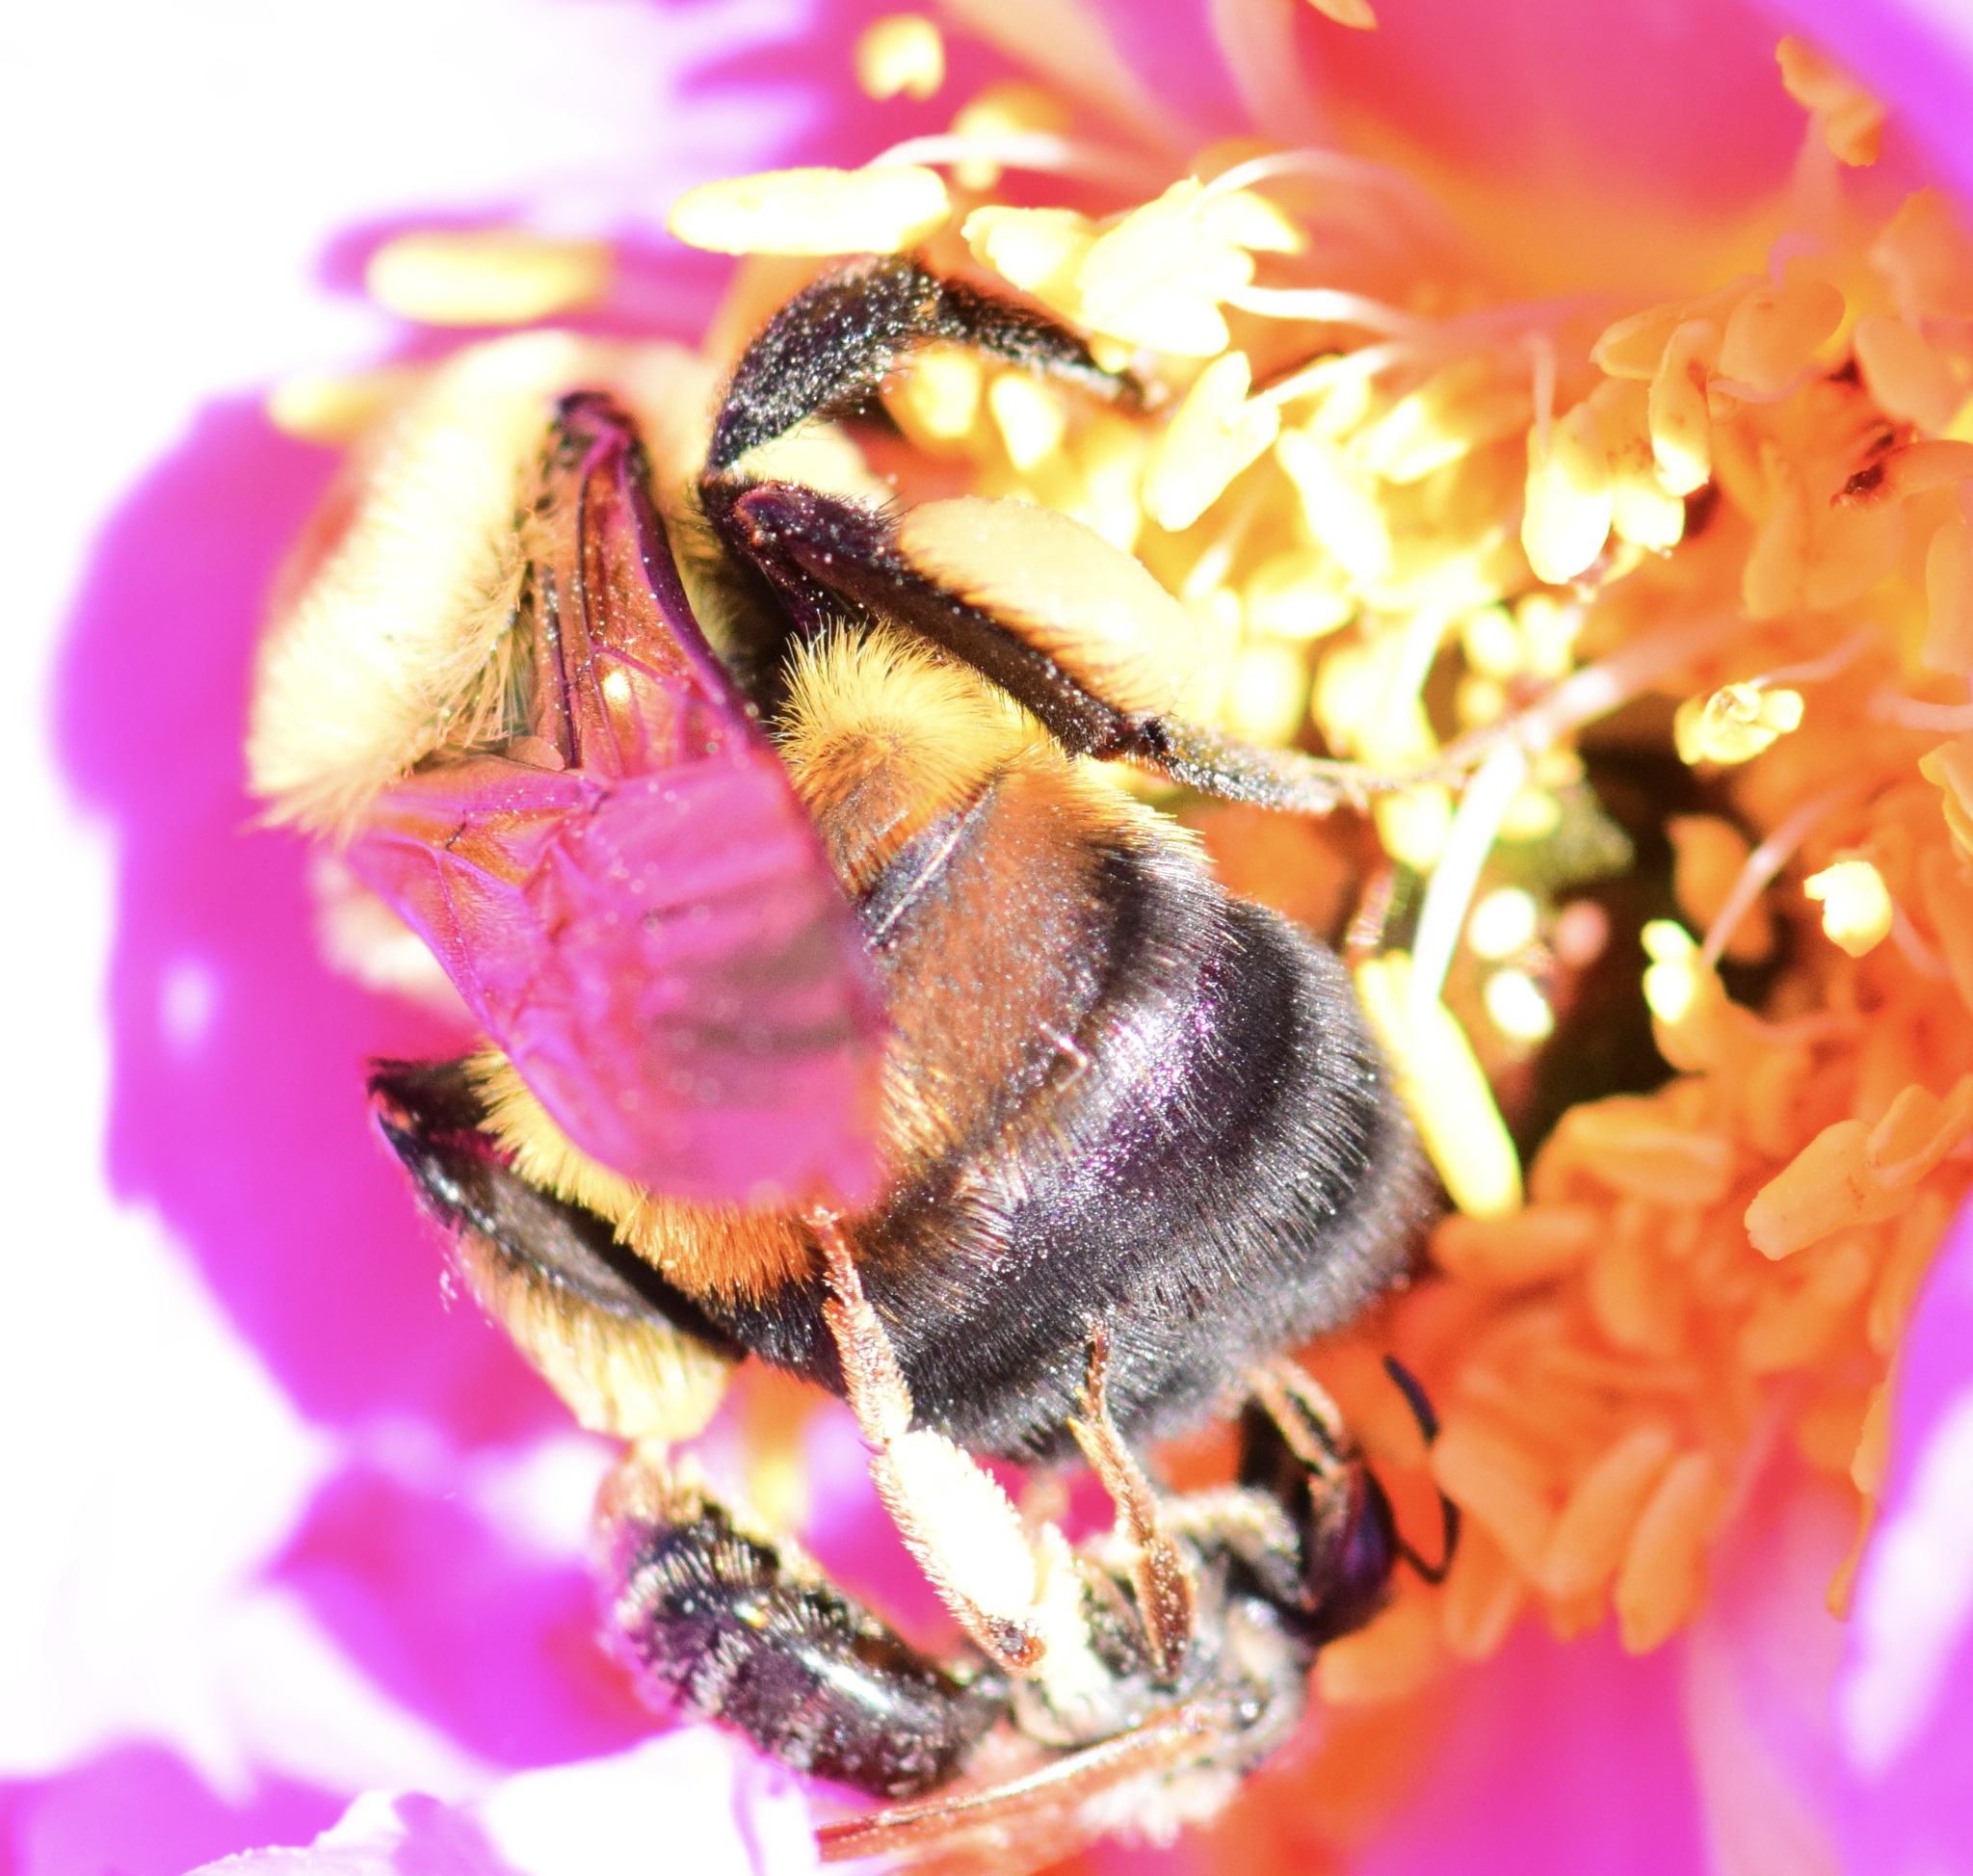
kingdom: Animalia
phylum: Arthropoda
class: Insecta
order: Hymenoptera
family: Apidae
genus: Bombus
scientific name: Bombus griseocollis
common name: Brown-belted bumble bee
